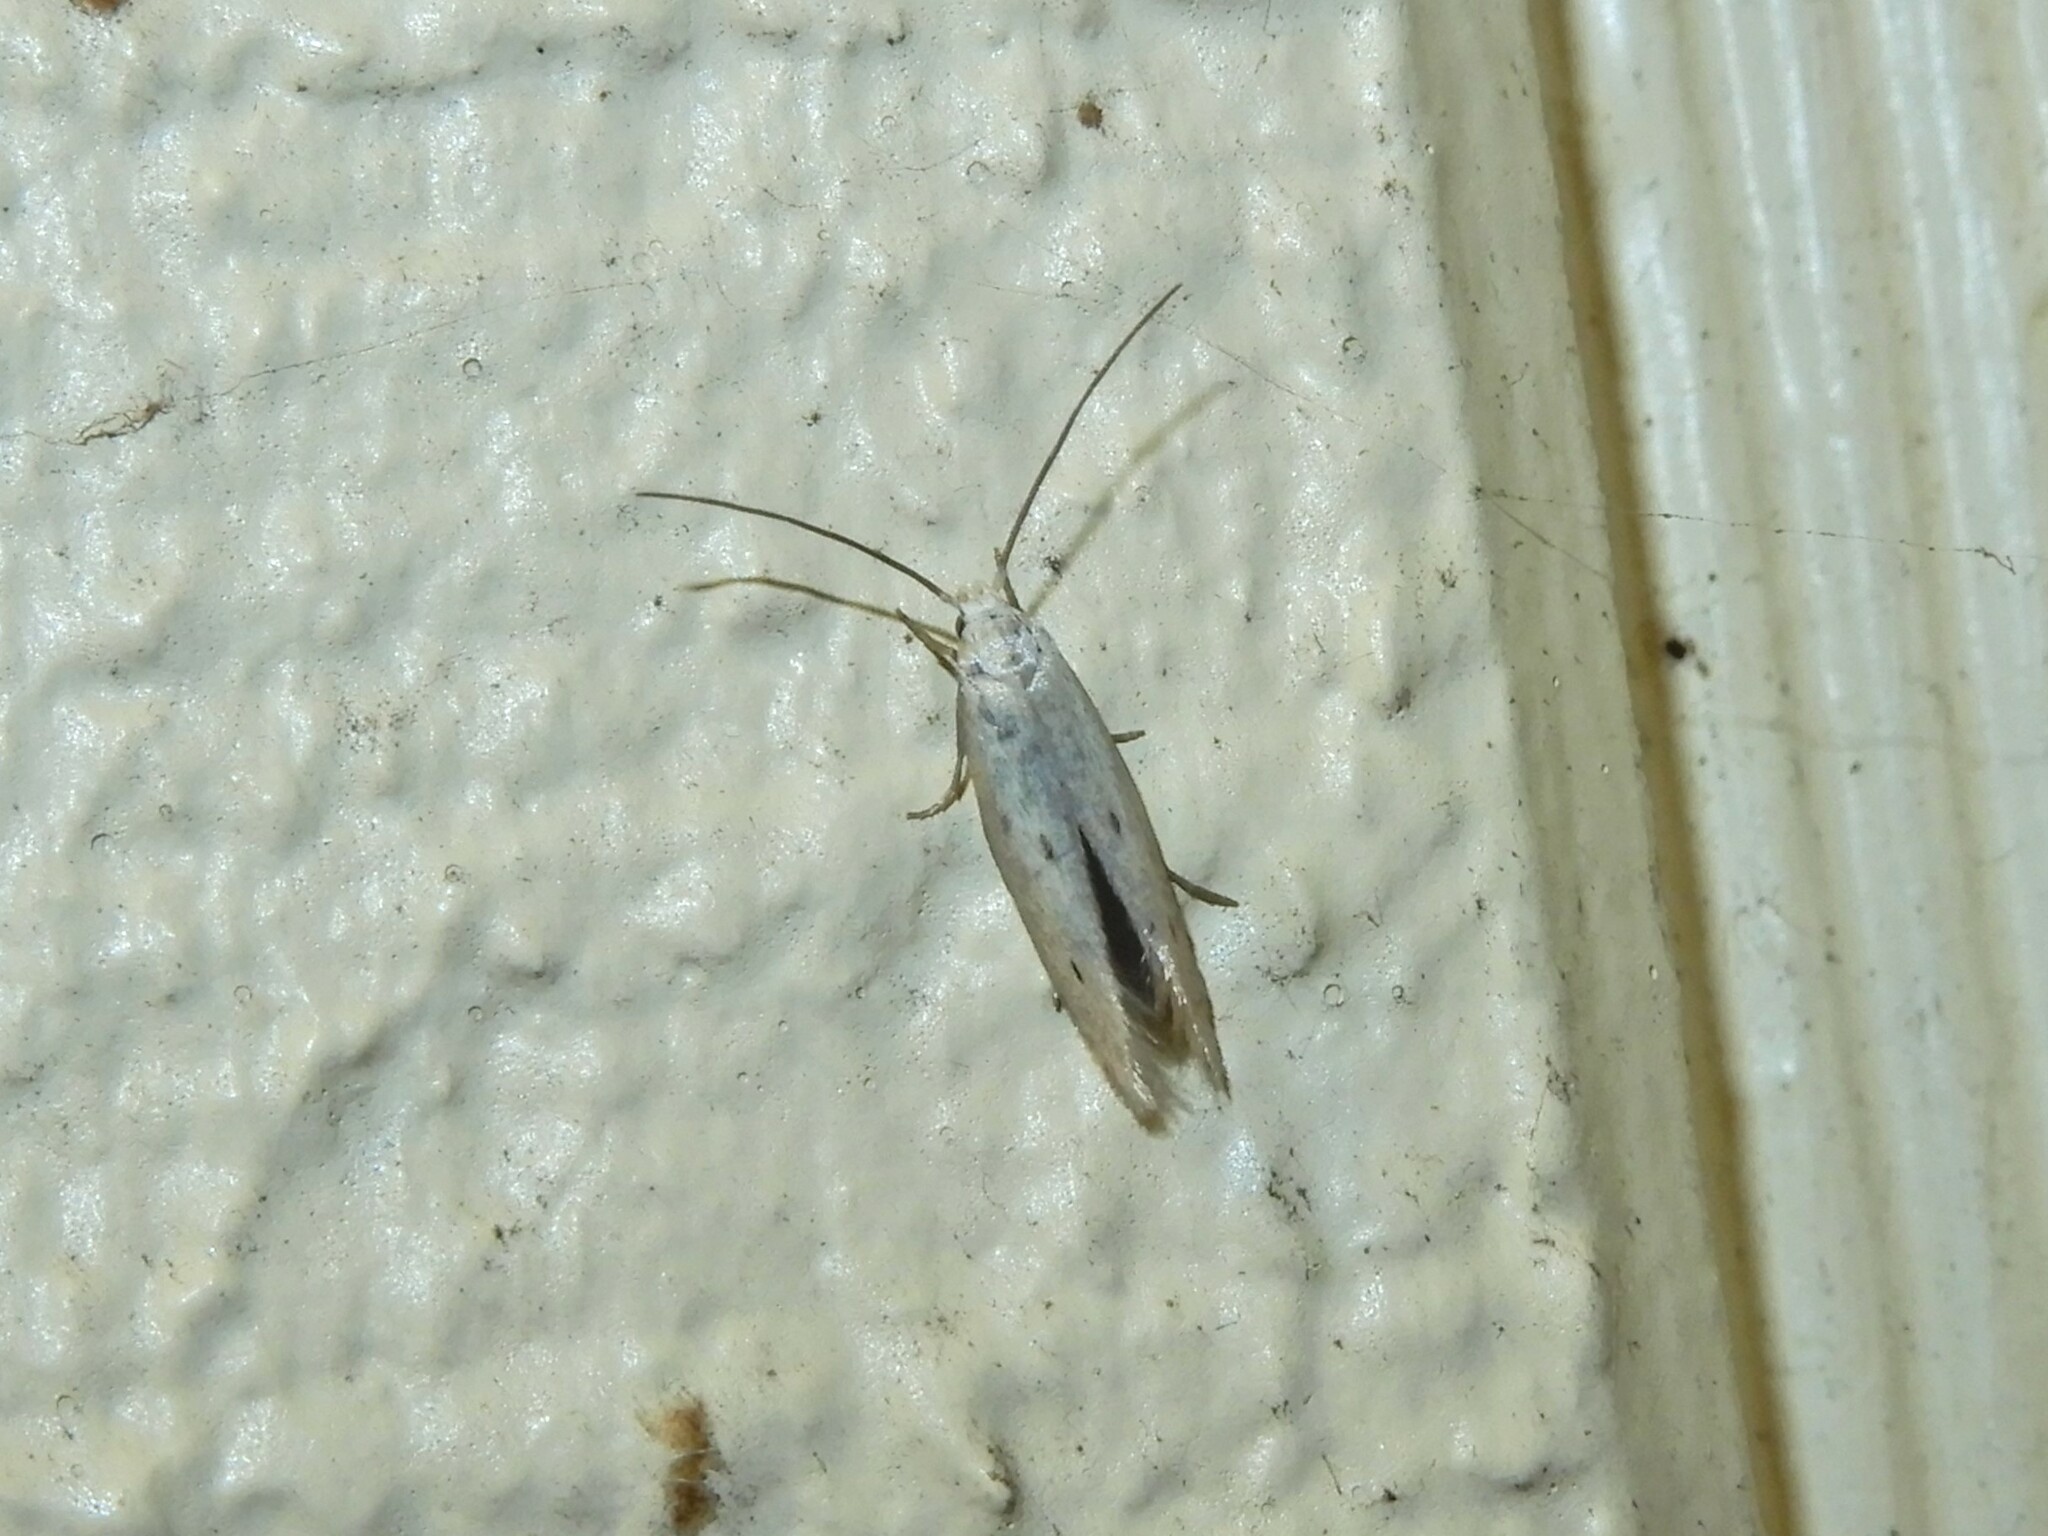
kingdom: Animalia
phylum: Arthropoda
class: Insecta
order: Lepidoptera
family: Elachistidae
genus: Elachista
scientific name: Elachista gerasmia
